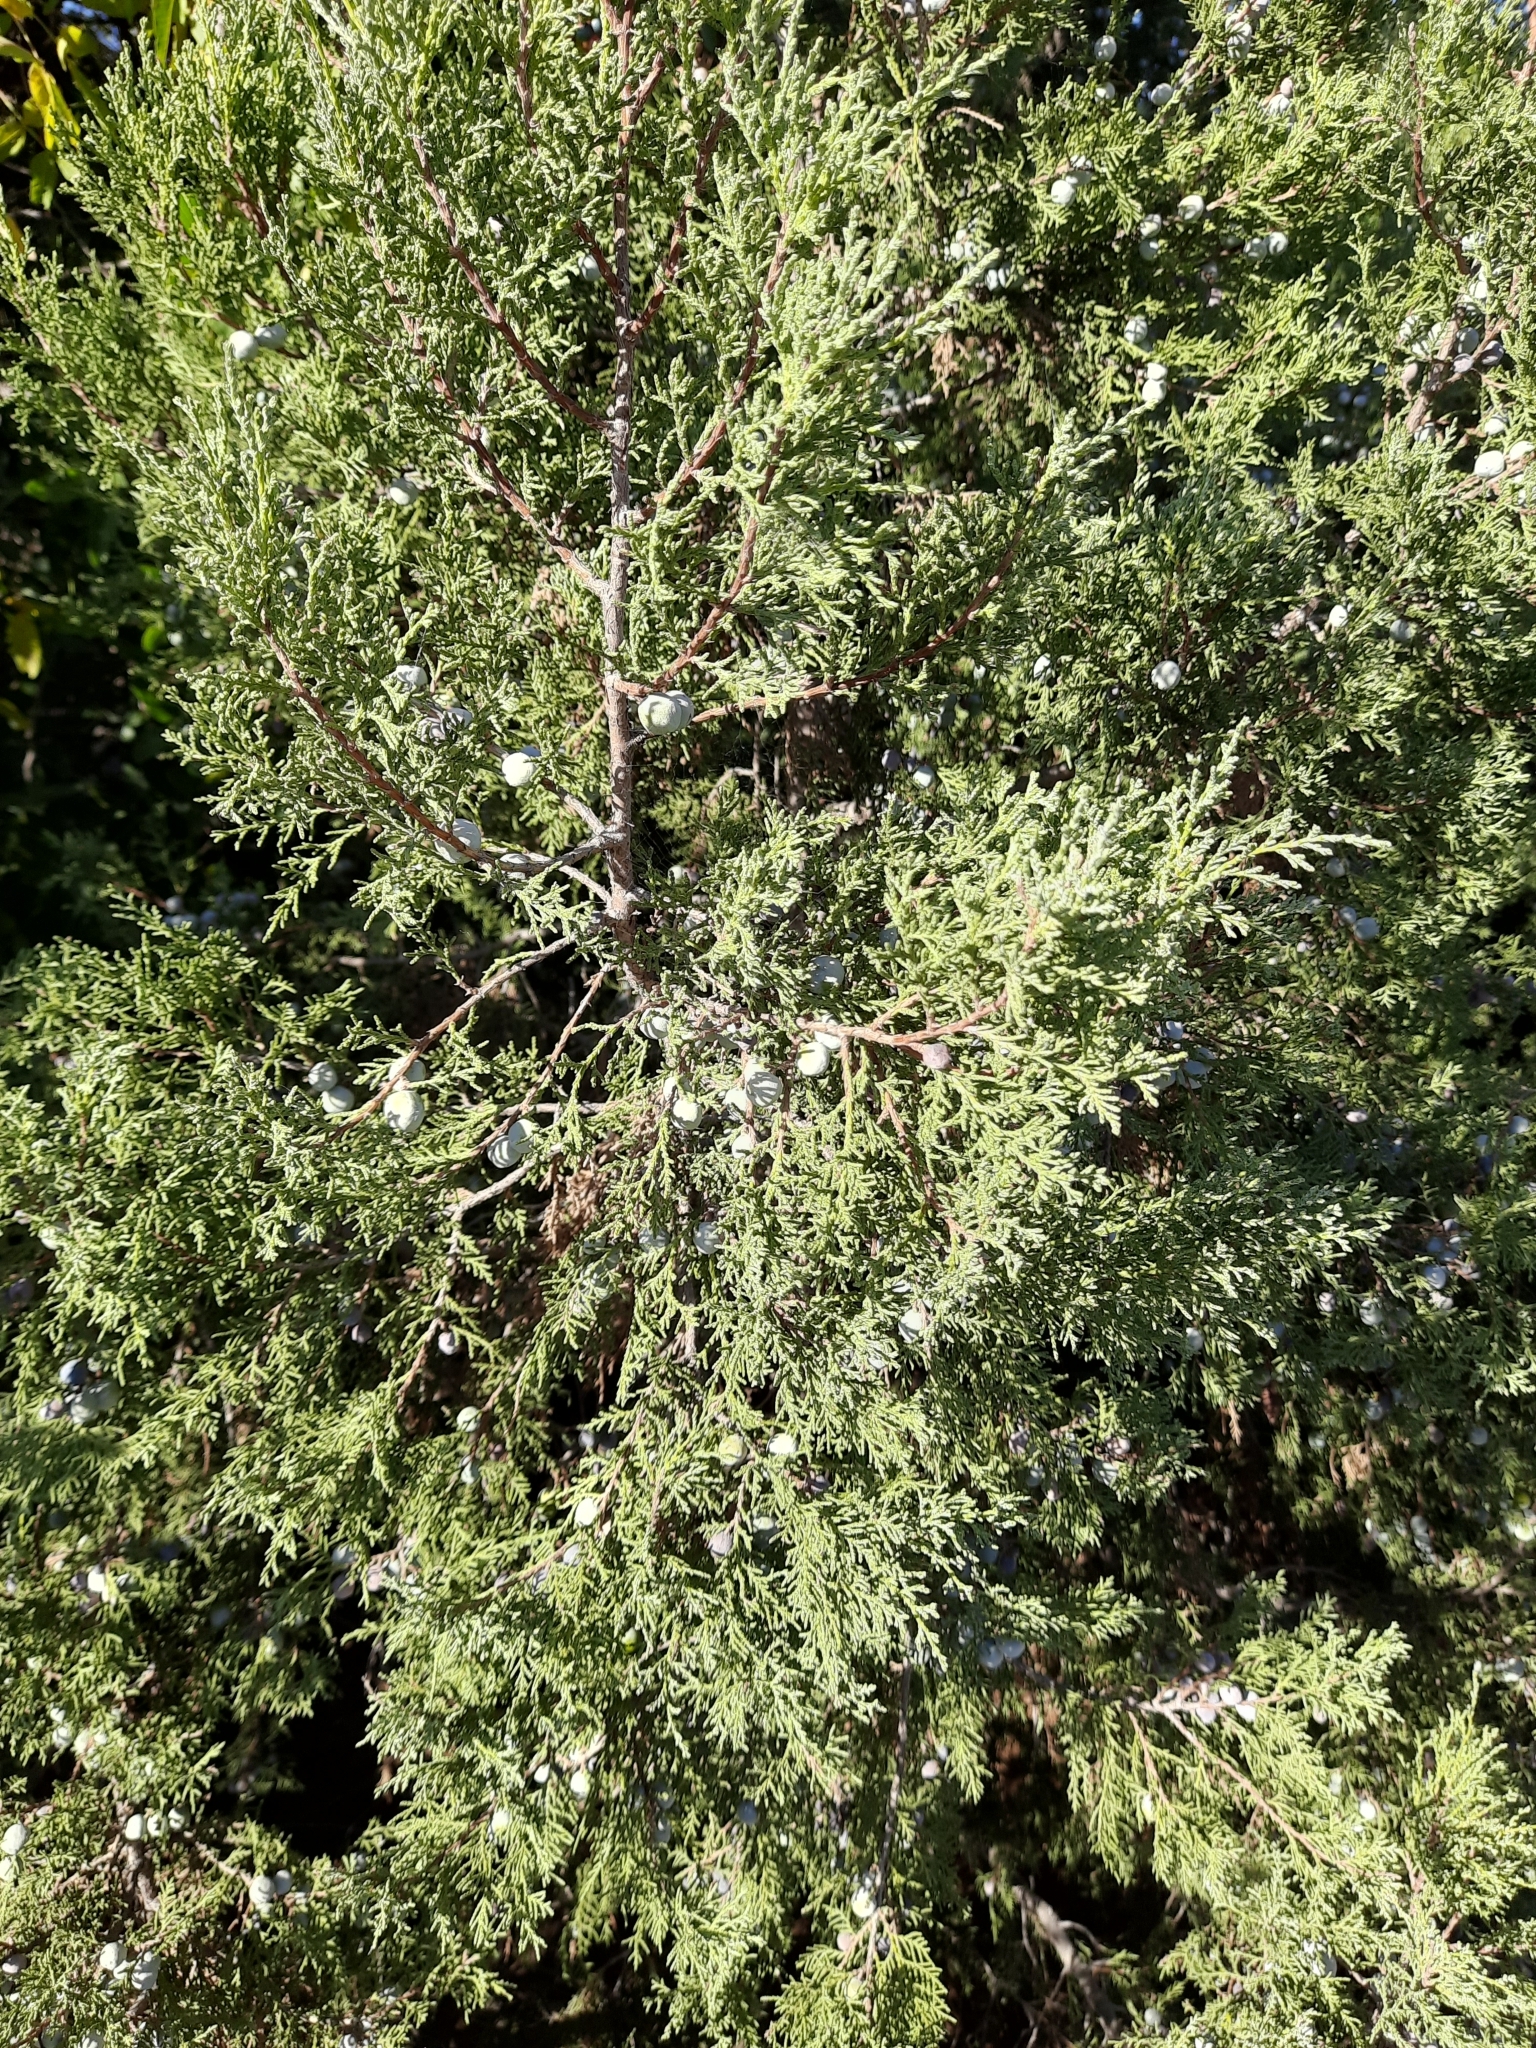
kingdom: Plantae
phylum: Tracheophyta
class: Pinopsida
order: Pinales
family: Cupressaceae
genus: Juniperus
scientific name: Juniperus excelsa
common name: Crimean juniper
